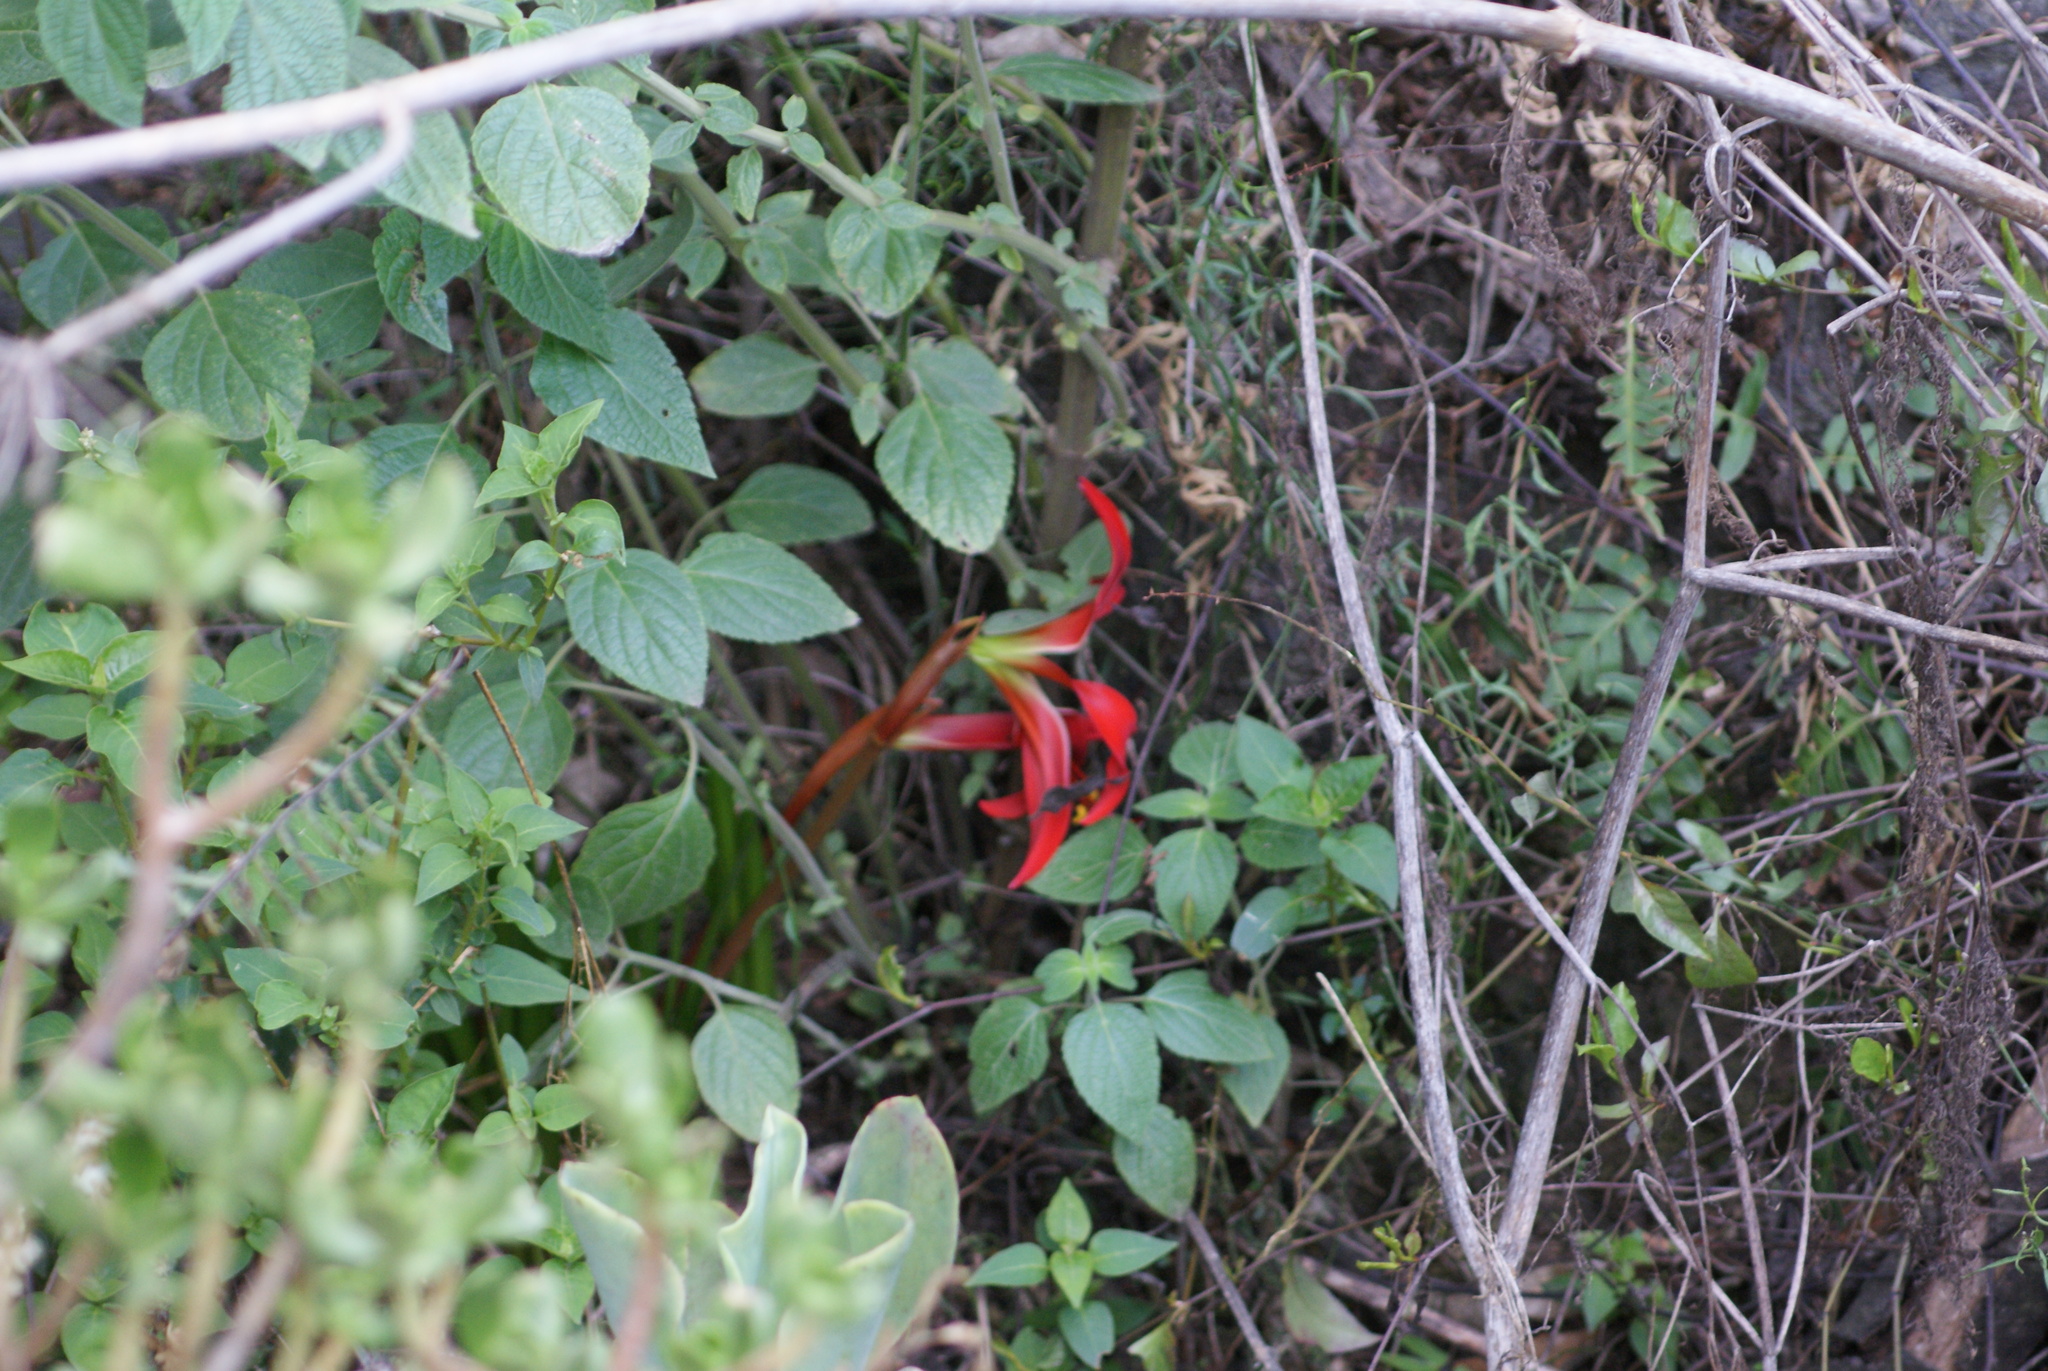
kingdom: Plantae
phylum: Tracheophyta
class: Liliopsida
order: Asparagales
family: Amaryllidaceae
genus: Sprekelia
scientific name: Sprekelia formosissima
